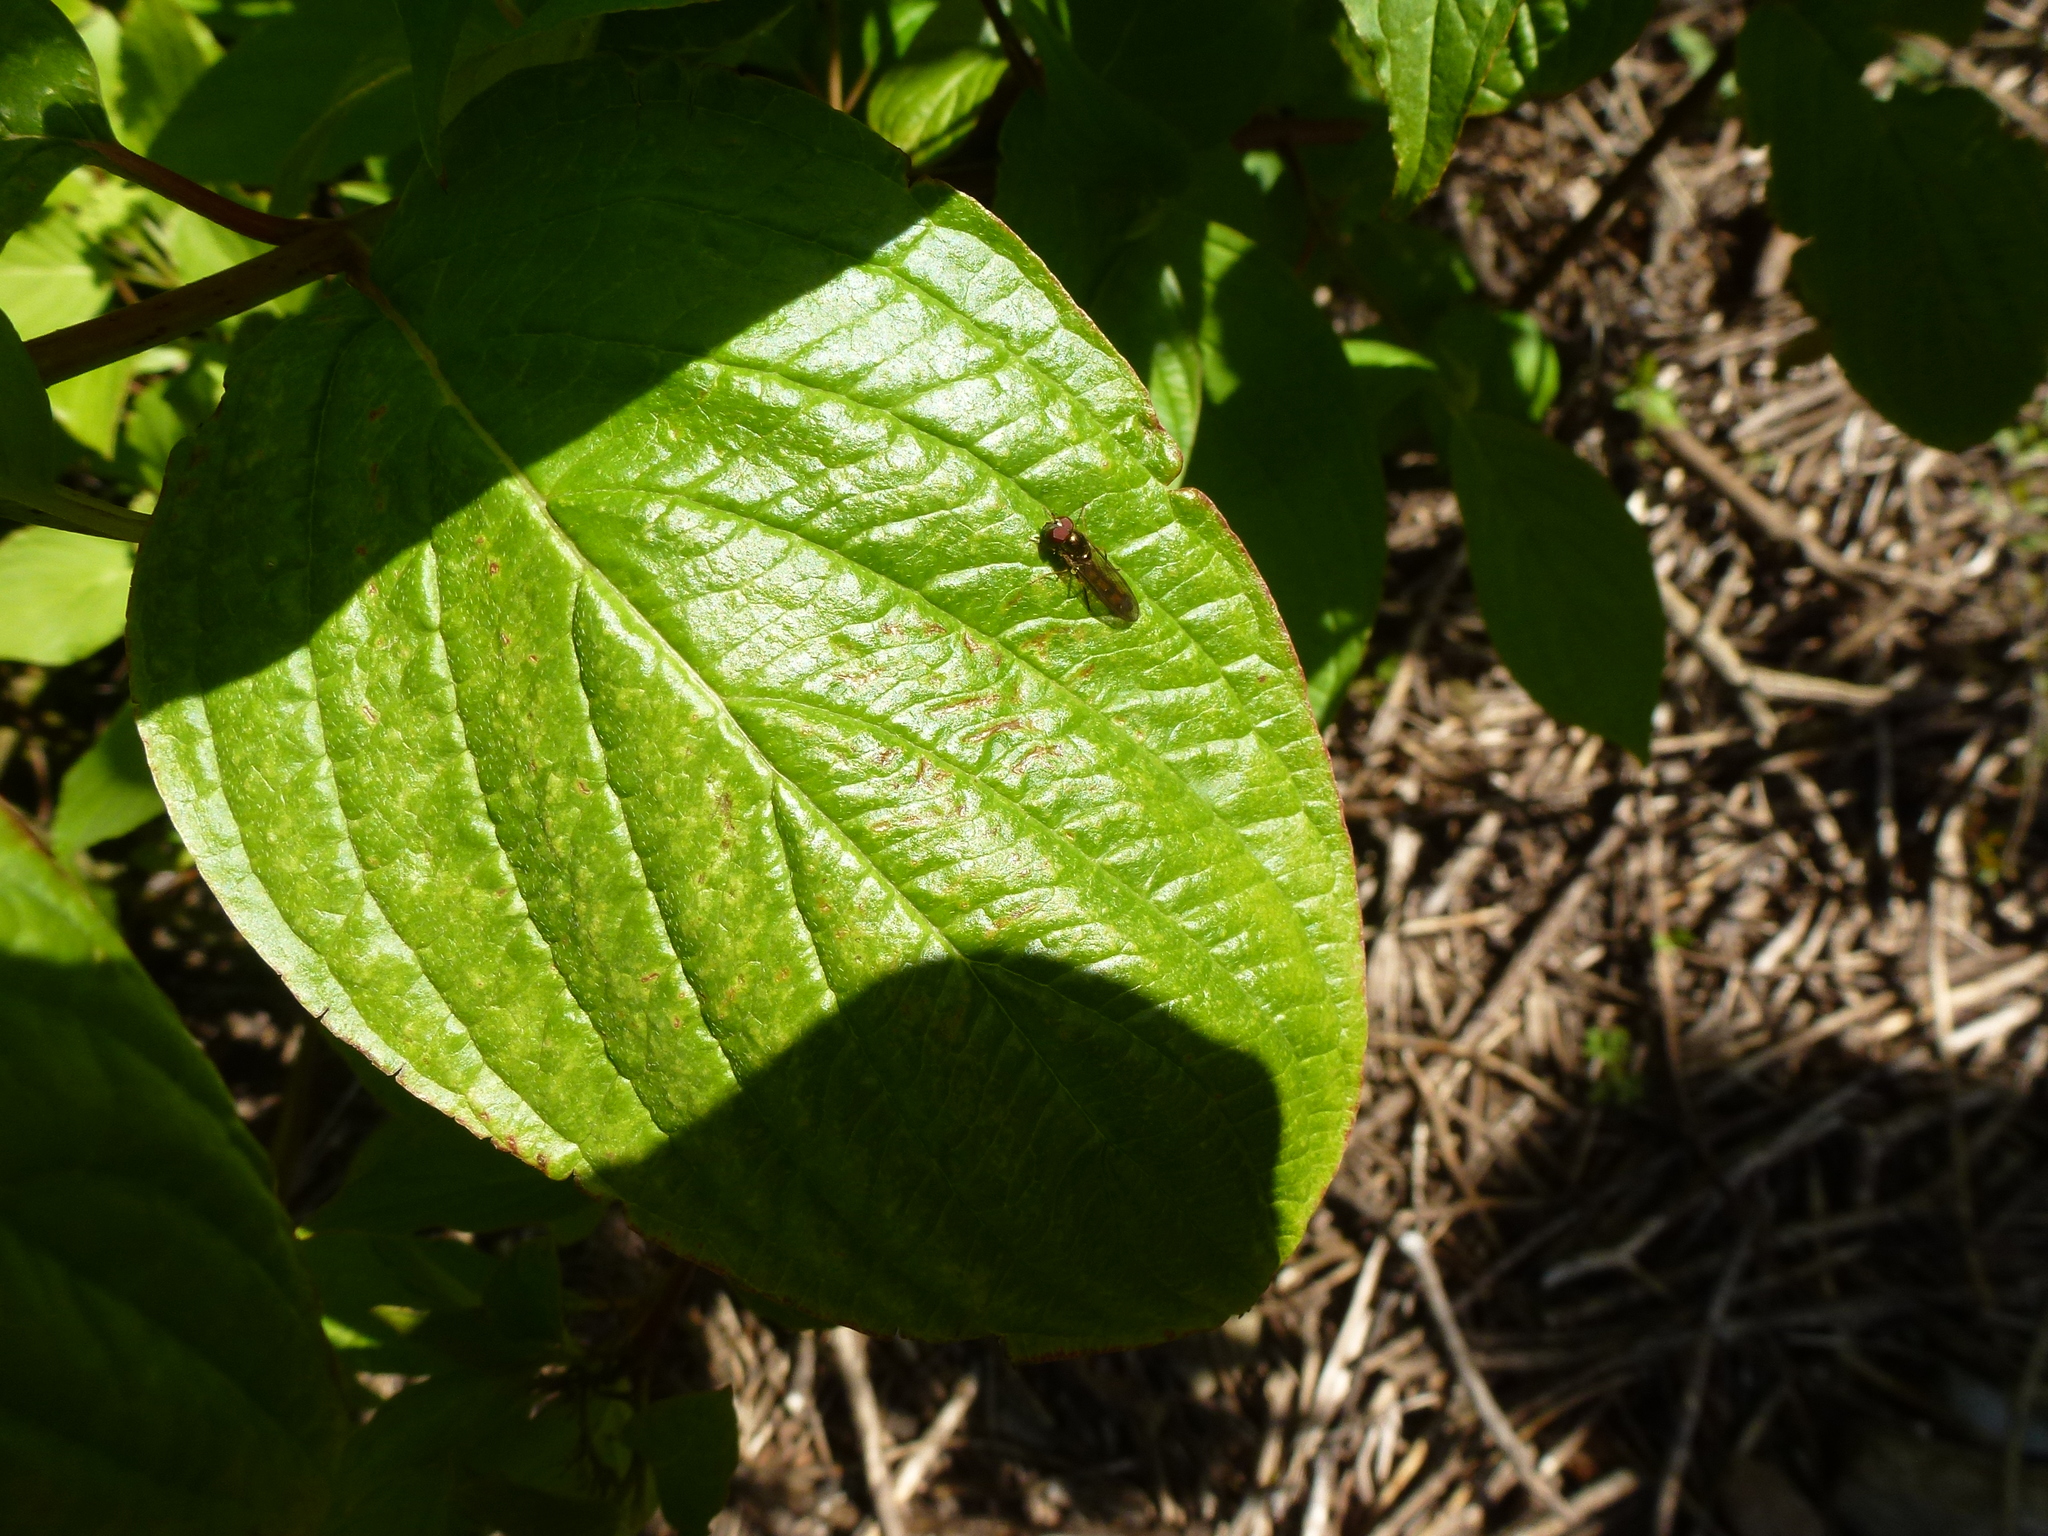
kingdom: Animalia
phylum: Arthropoda
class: Insecta
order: Diptera
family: Syrphidae
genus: Melanostoma
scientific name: Melanostoma scalare
